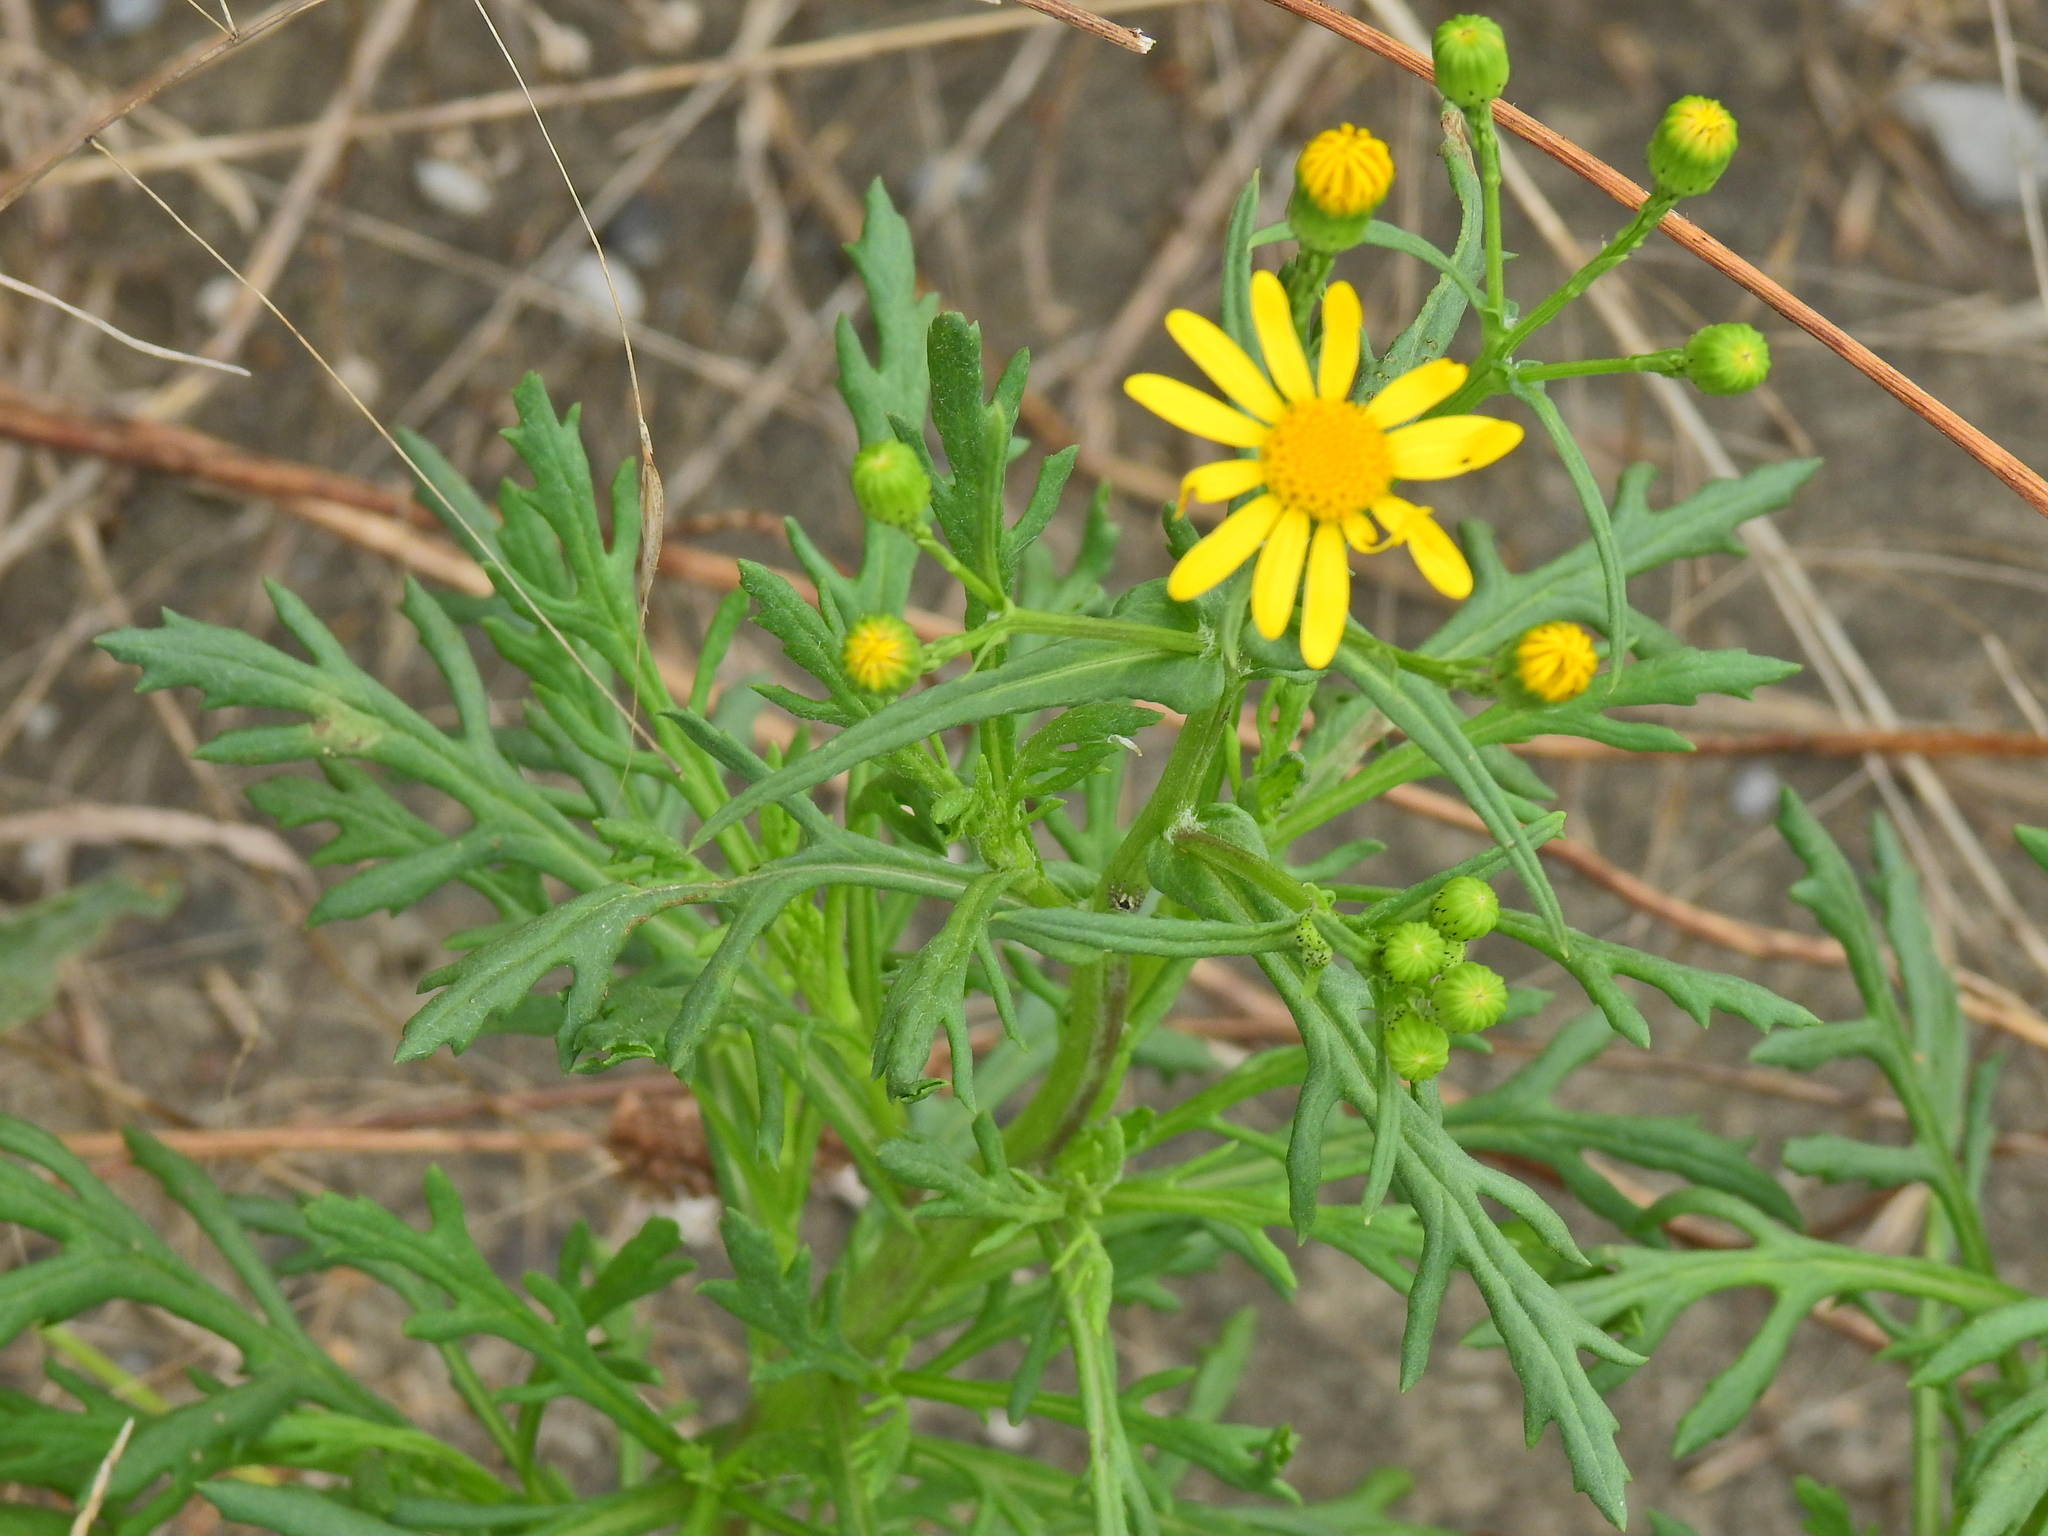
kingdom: Plantae
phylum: Tracheophyta
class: Magnoliopsida
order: Asterales
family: Asteraceae
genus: Senecio
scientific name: Senecio squalidus
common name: Oxford ragwort
